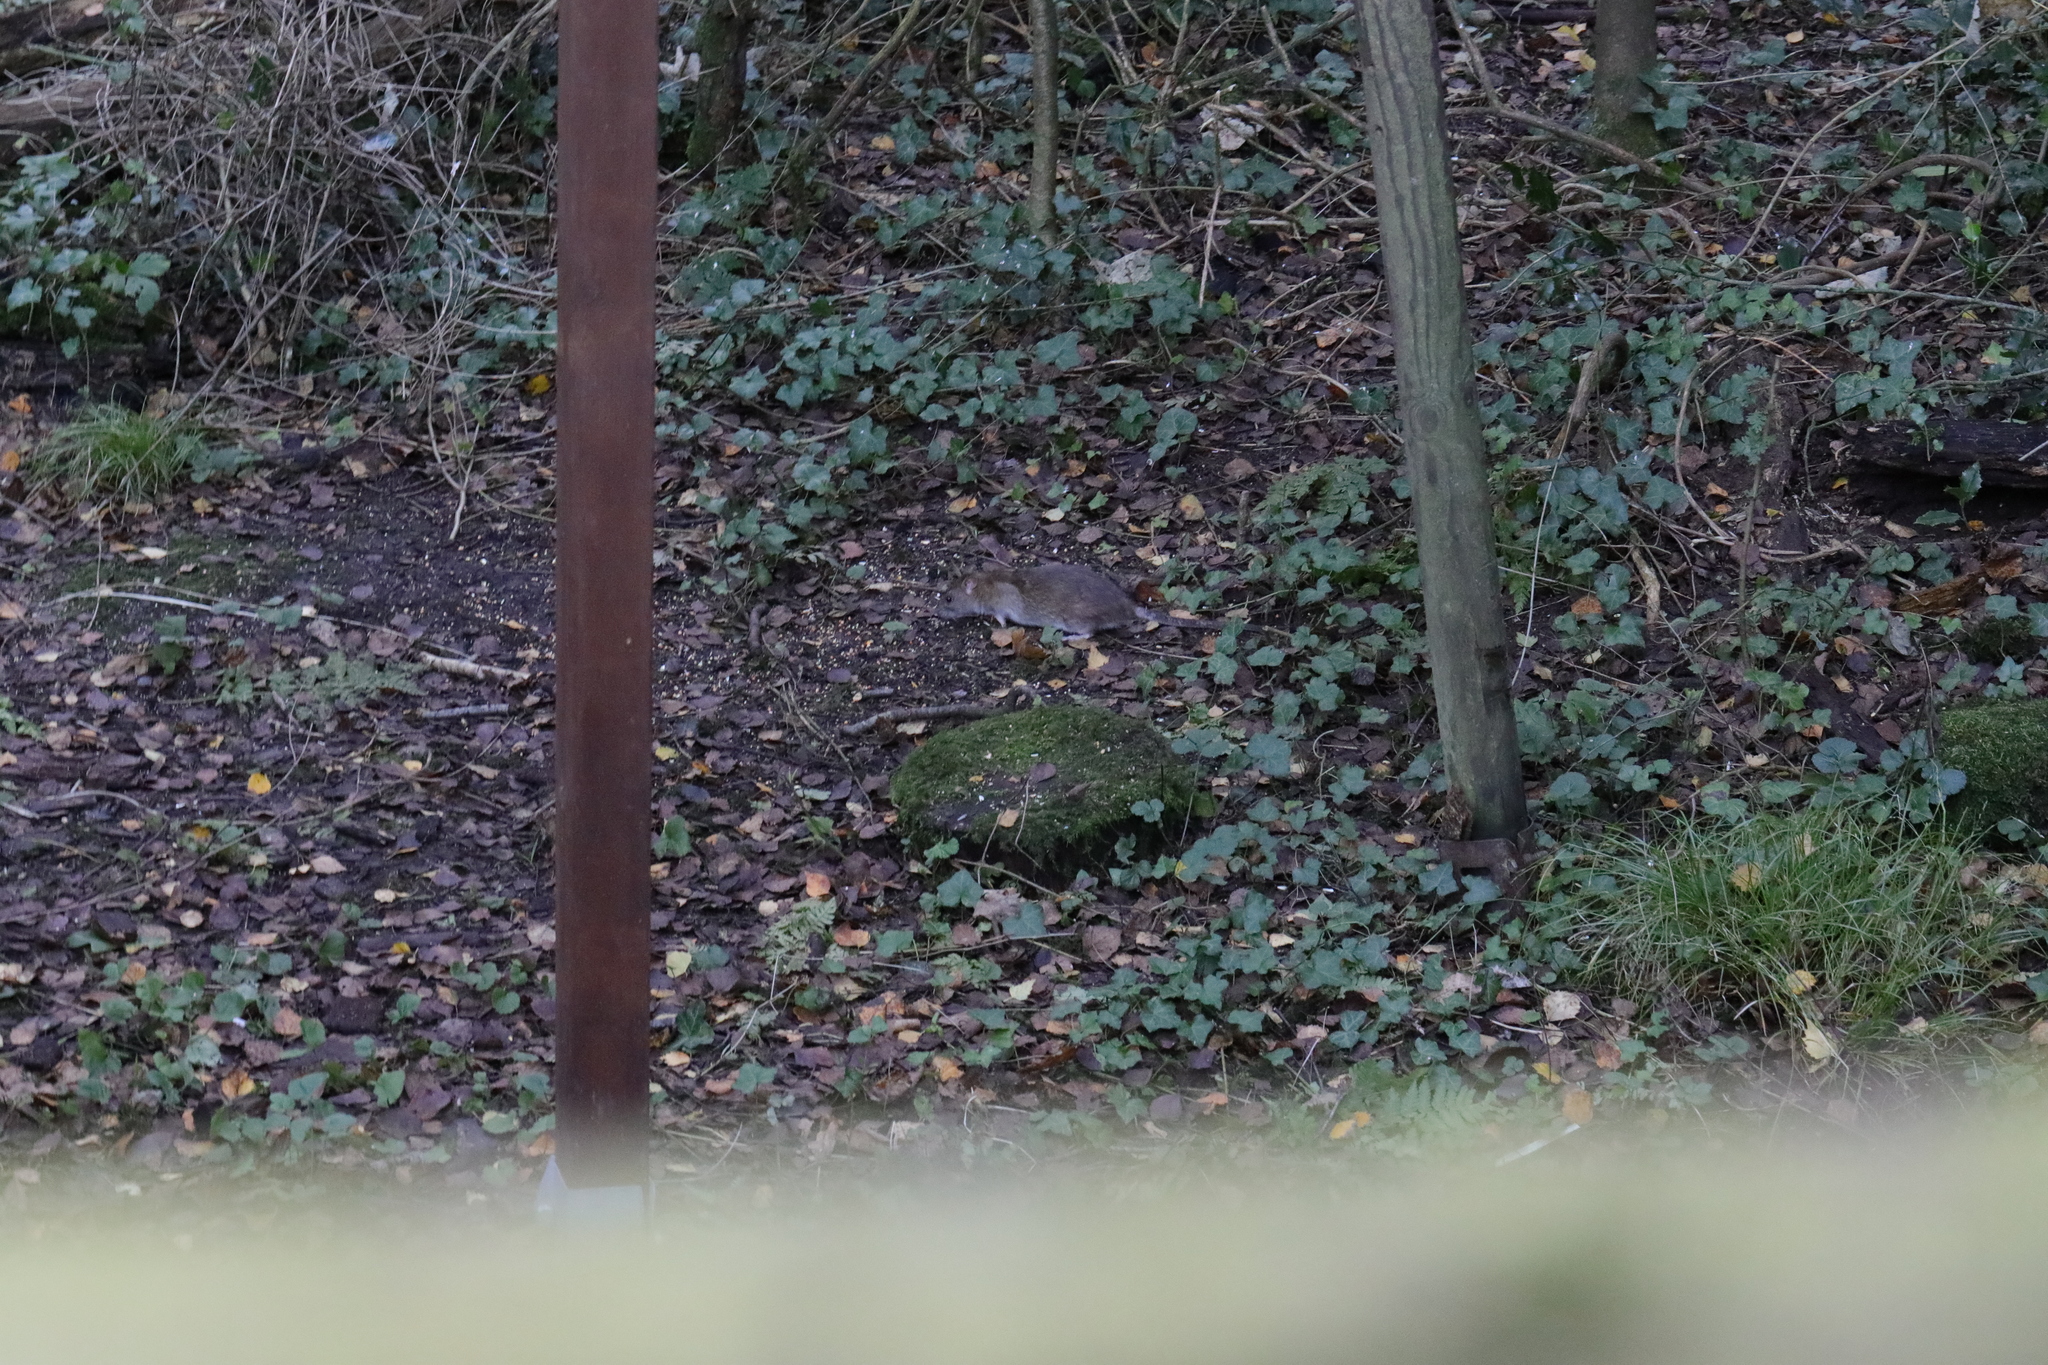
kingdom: Animalia
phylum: Chordata
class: Mammalia
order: Rodentia
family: Muridae
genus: Rattus
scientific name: Rattus norvegicus
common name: Brown rat
